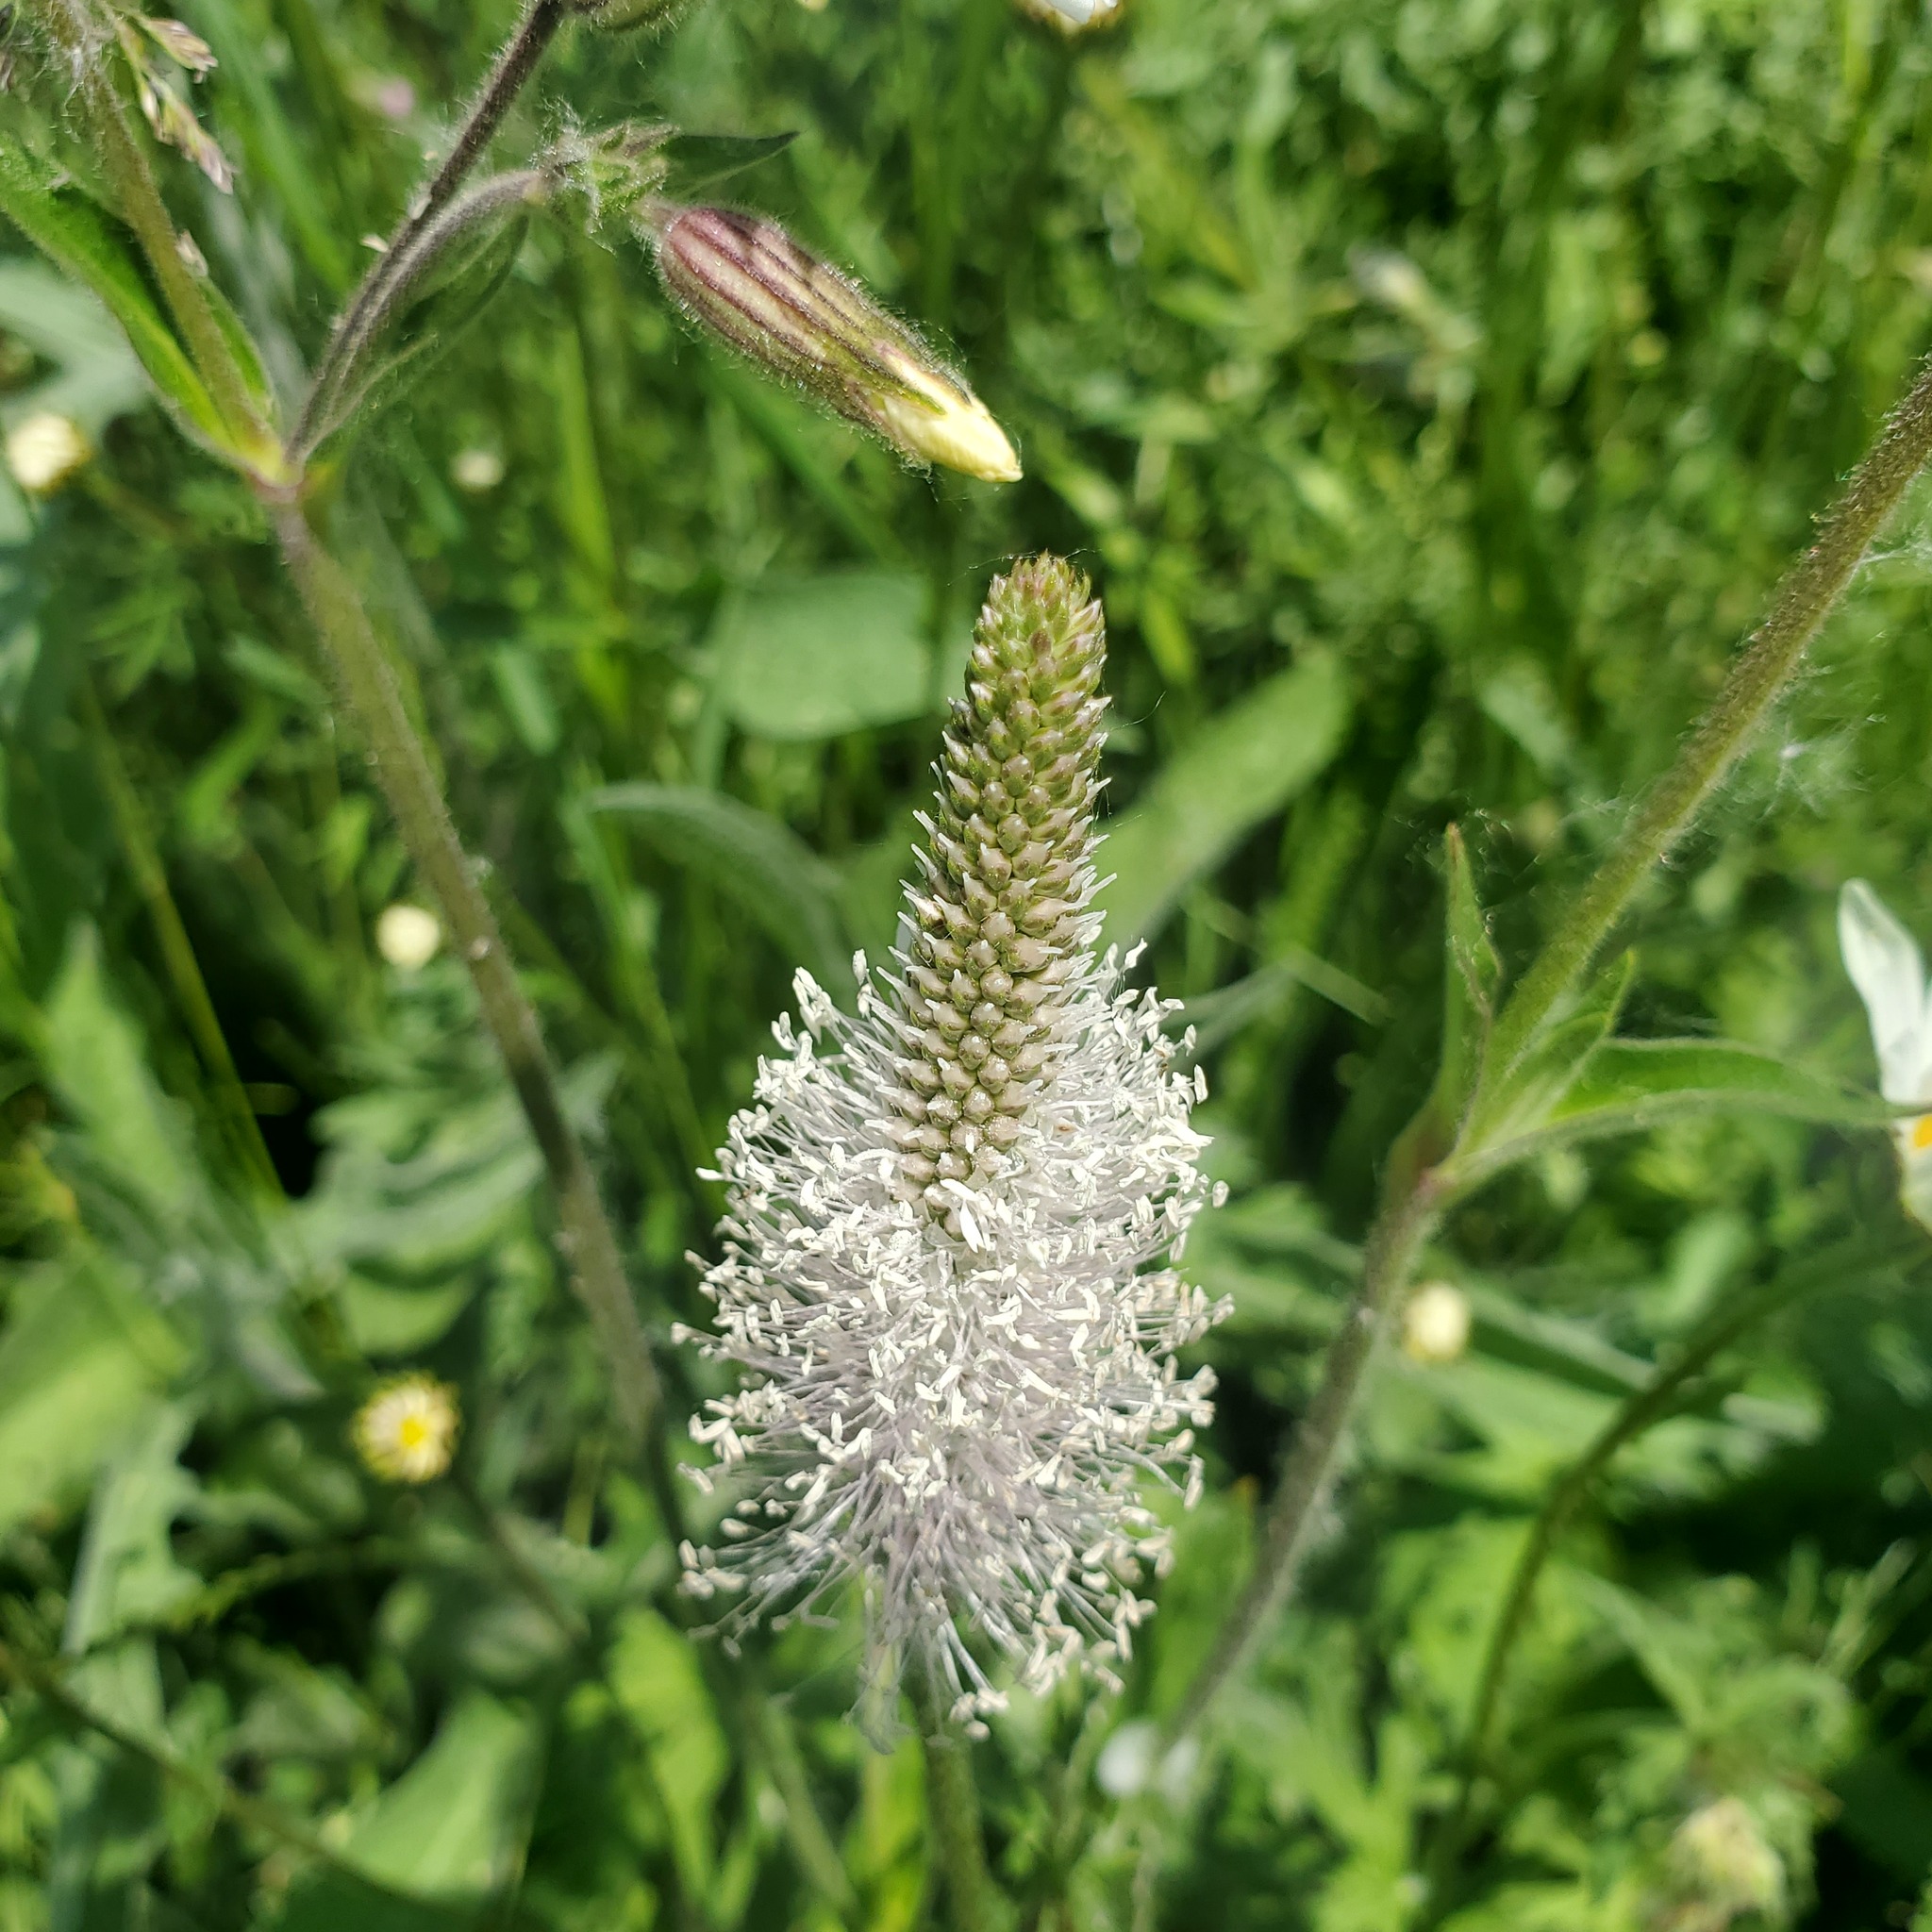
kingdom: Plantae
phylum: Tracheophyta
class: Magnoliopsida
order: Lamiales
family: Plantaginaceae
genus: Plantago
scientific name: Plantago media
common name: Hoary plantain
